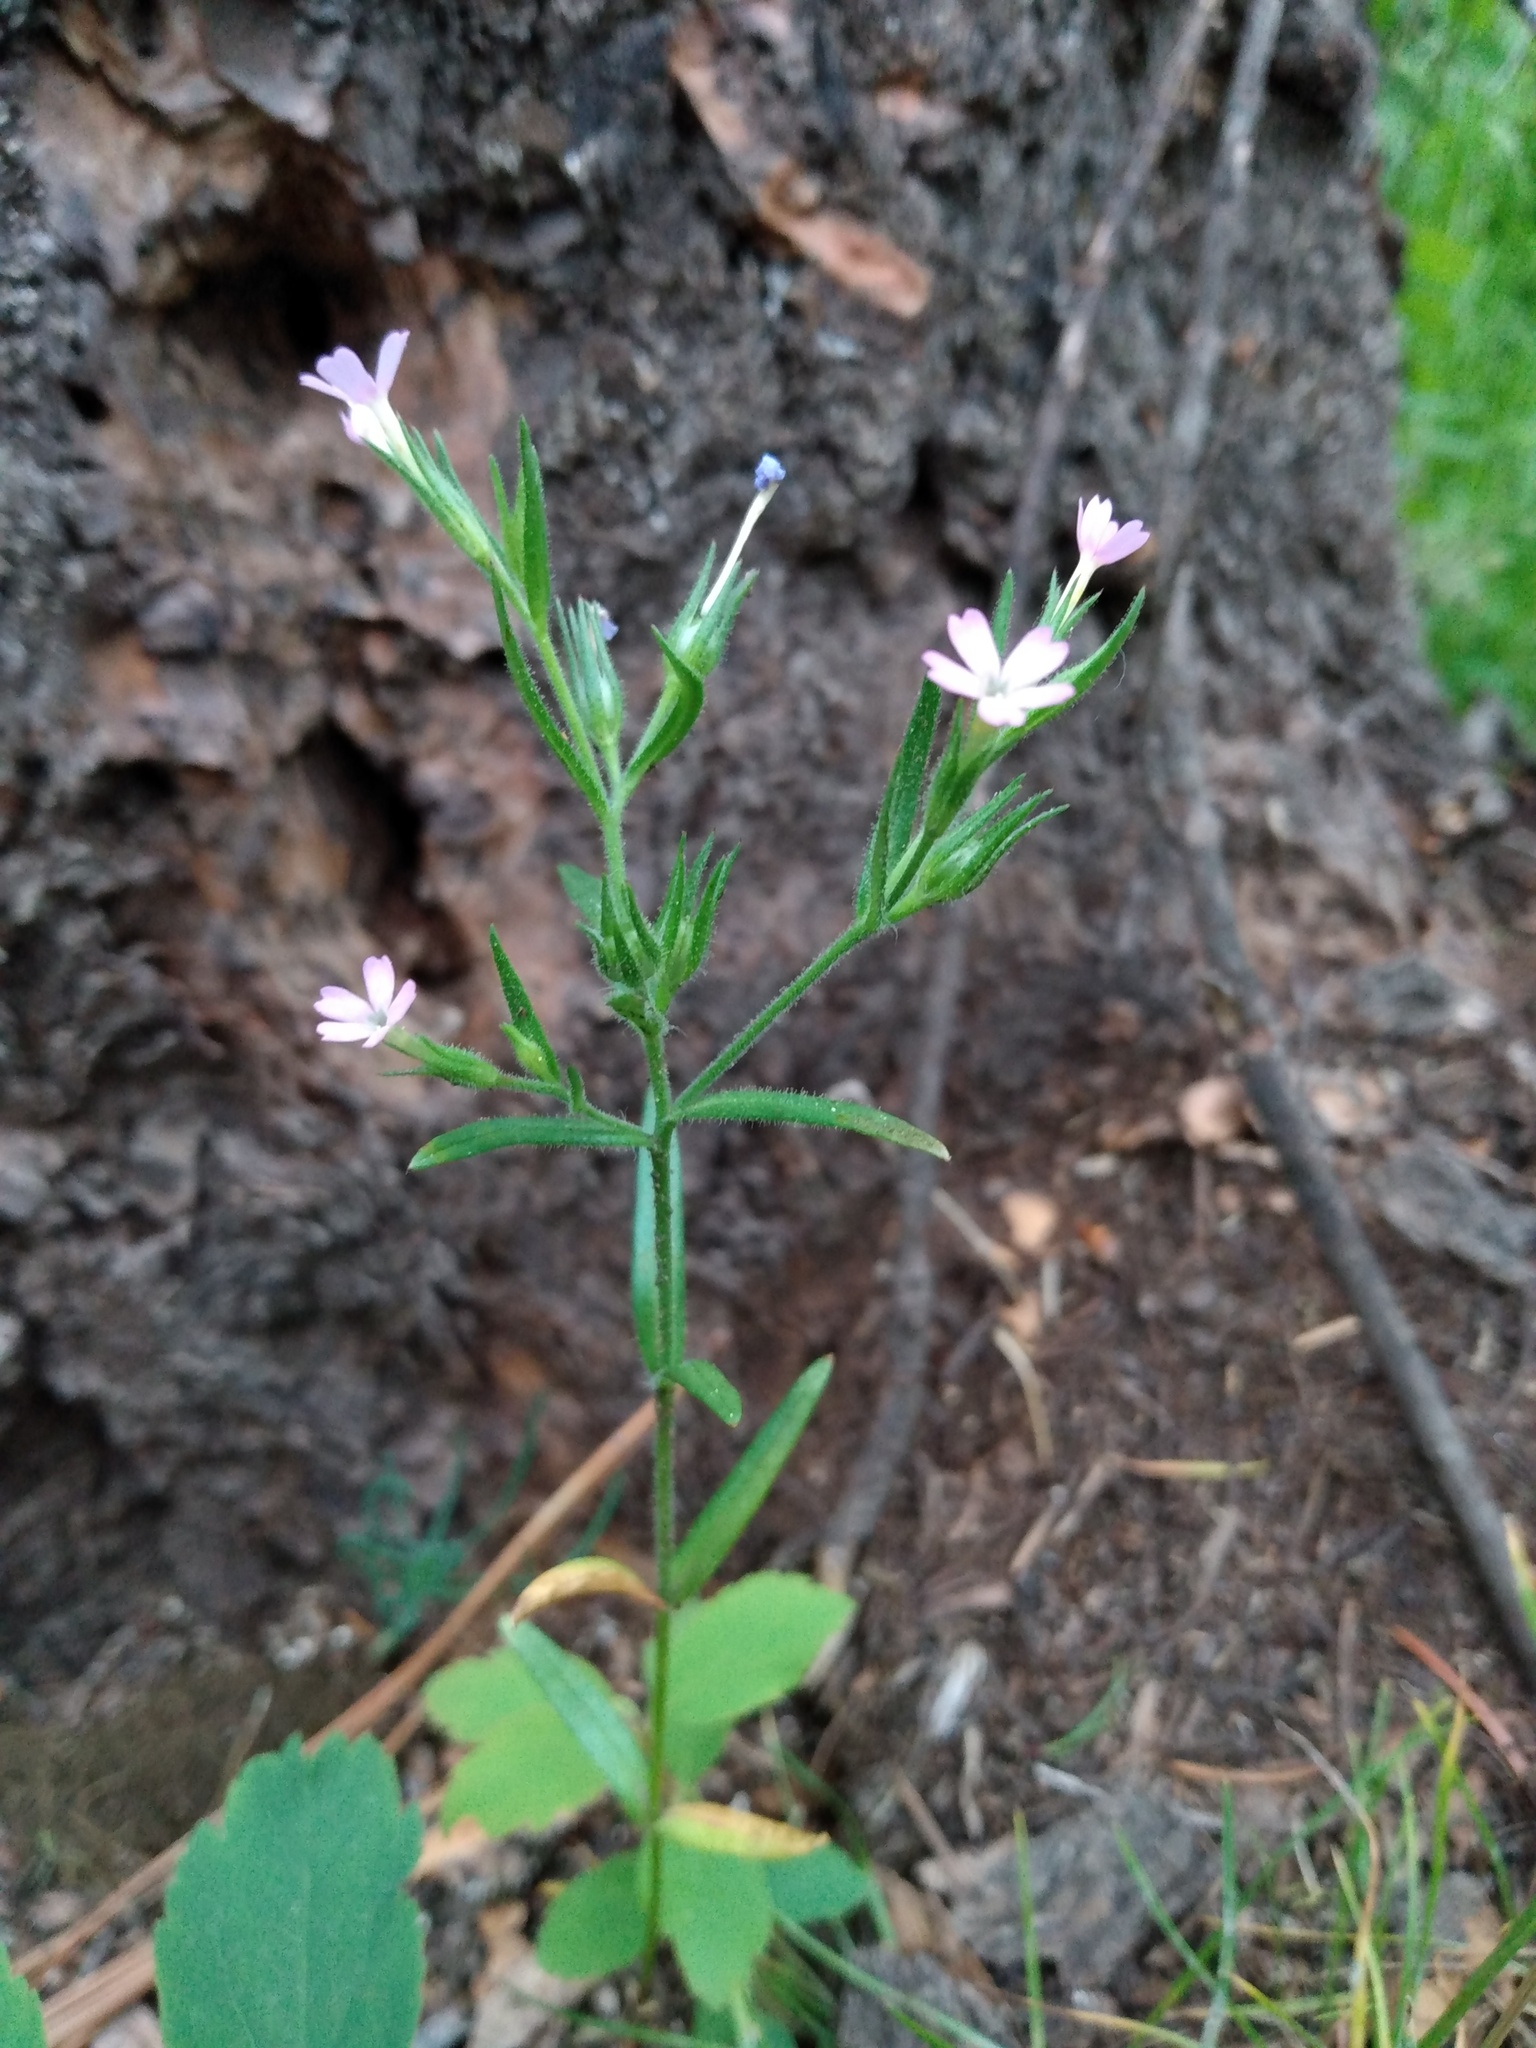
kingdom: Plantae
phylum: Tracheophyta
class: Magnoliopsida
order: Ericales
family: Polemoniaceae
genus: Phlox
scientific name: Phlox gracilis
